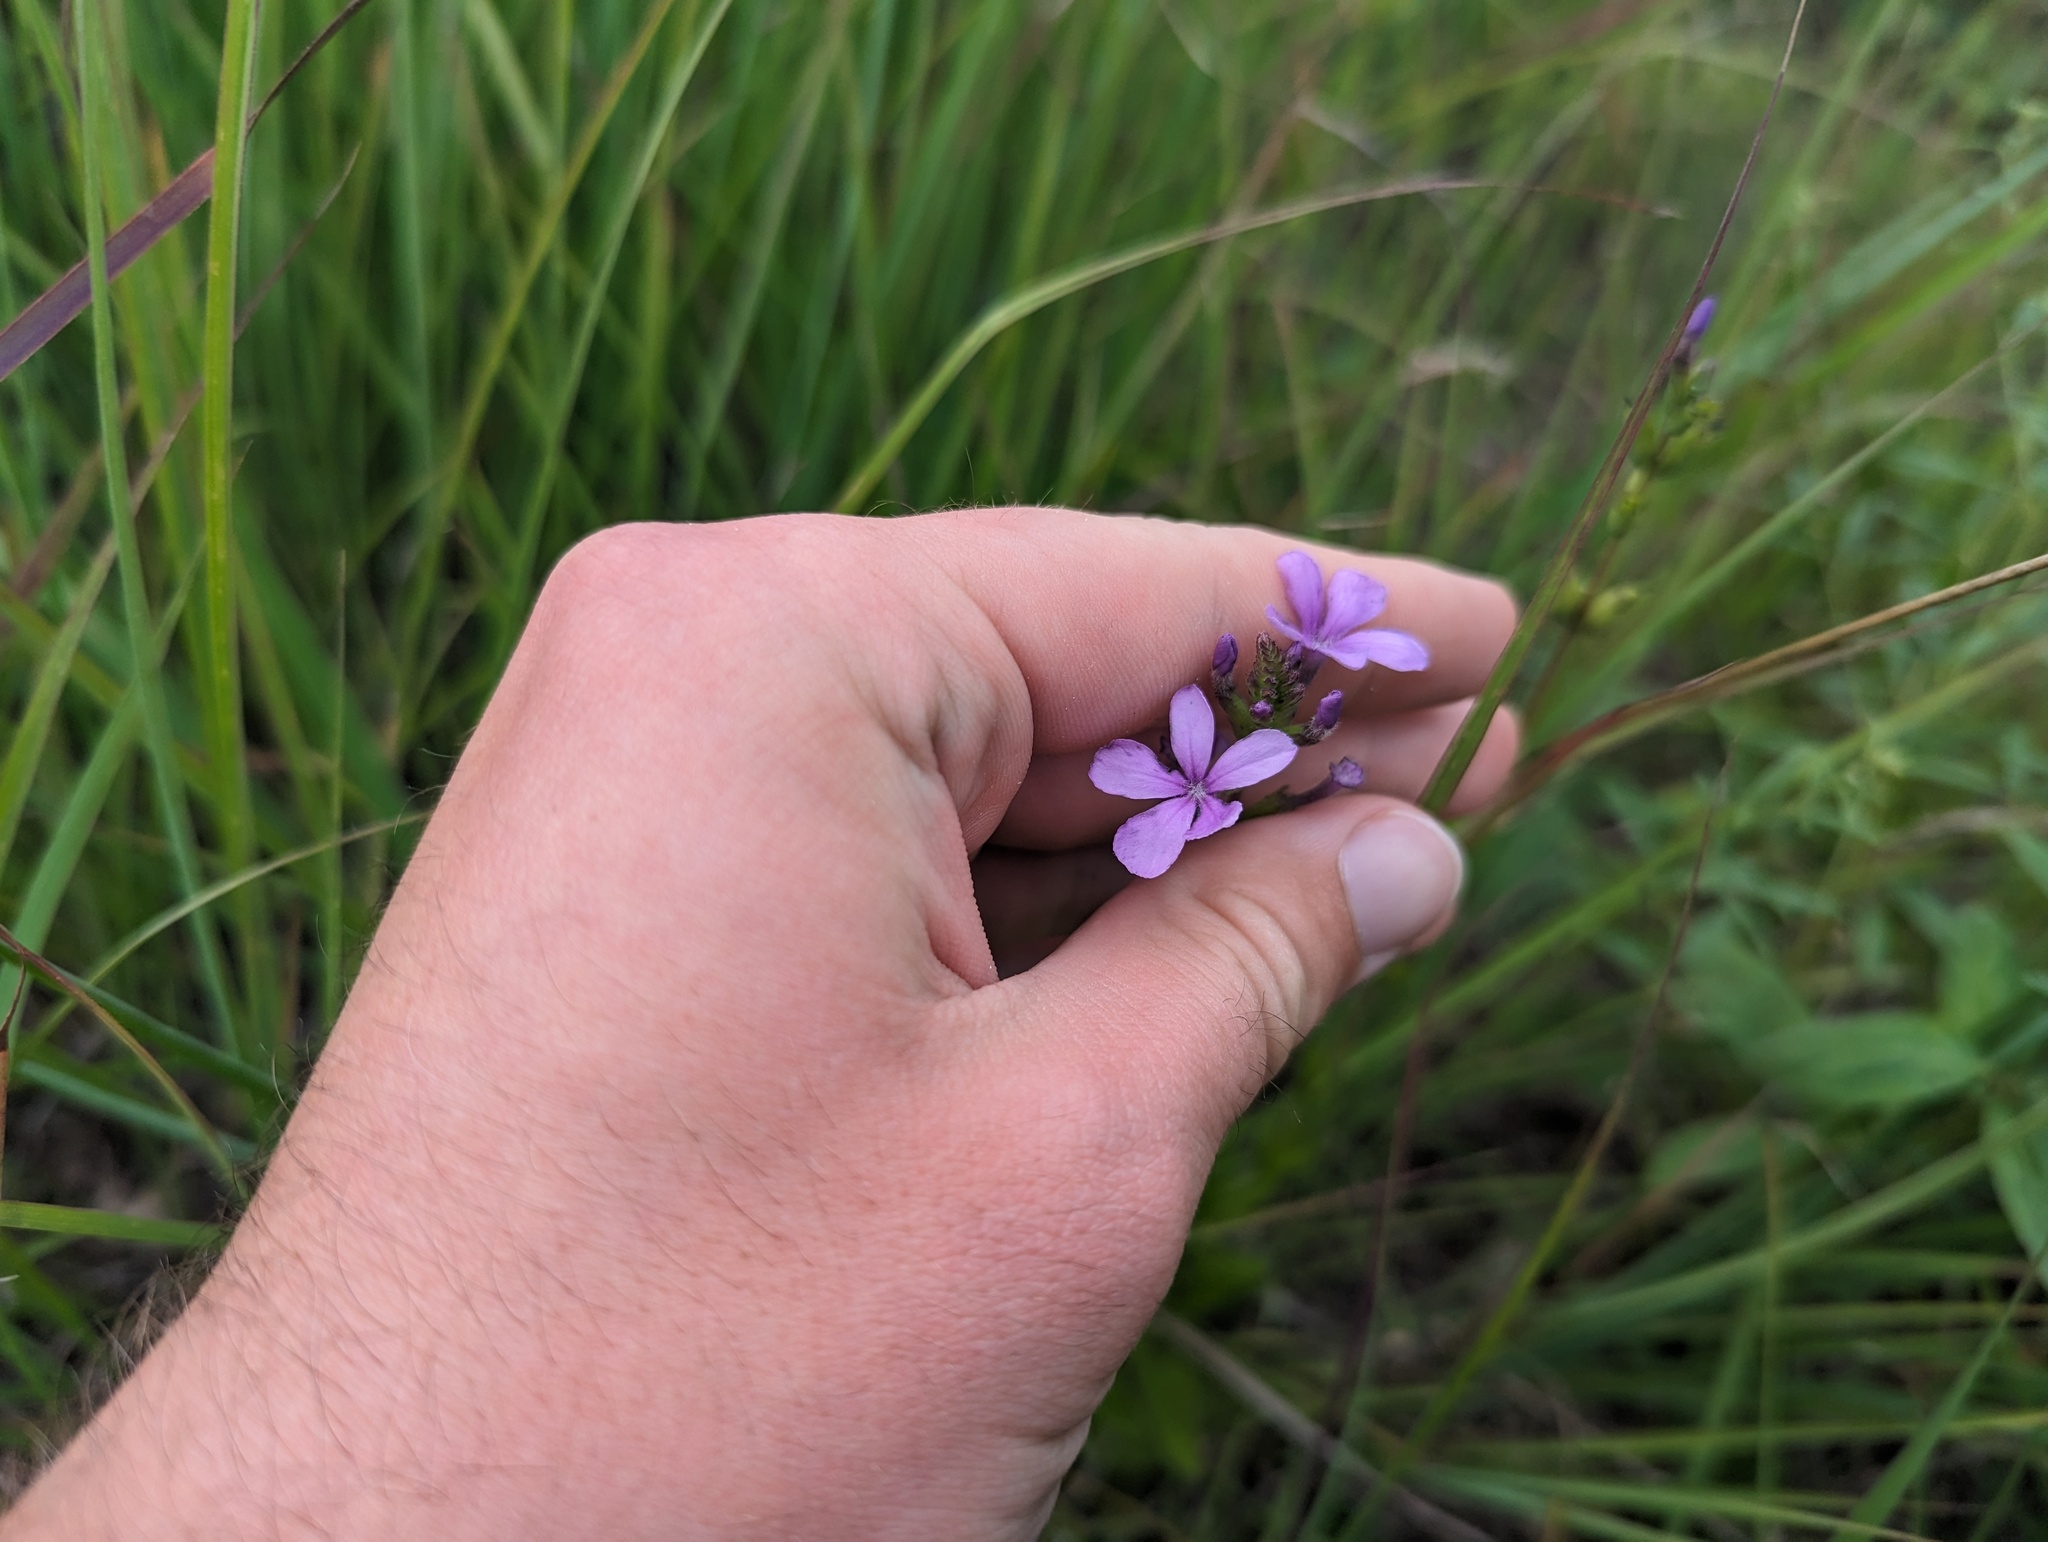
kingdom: Plantae
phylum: Tracheophyta
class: Magnoliopsida
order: Lamiales
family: Orobanchaceae
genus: Buchnera
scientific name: Buchnera americana
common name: American bluehearts
